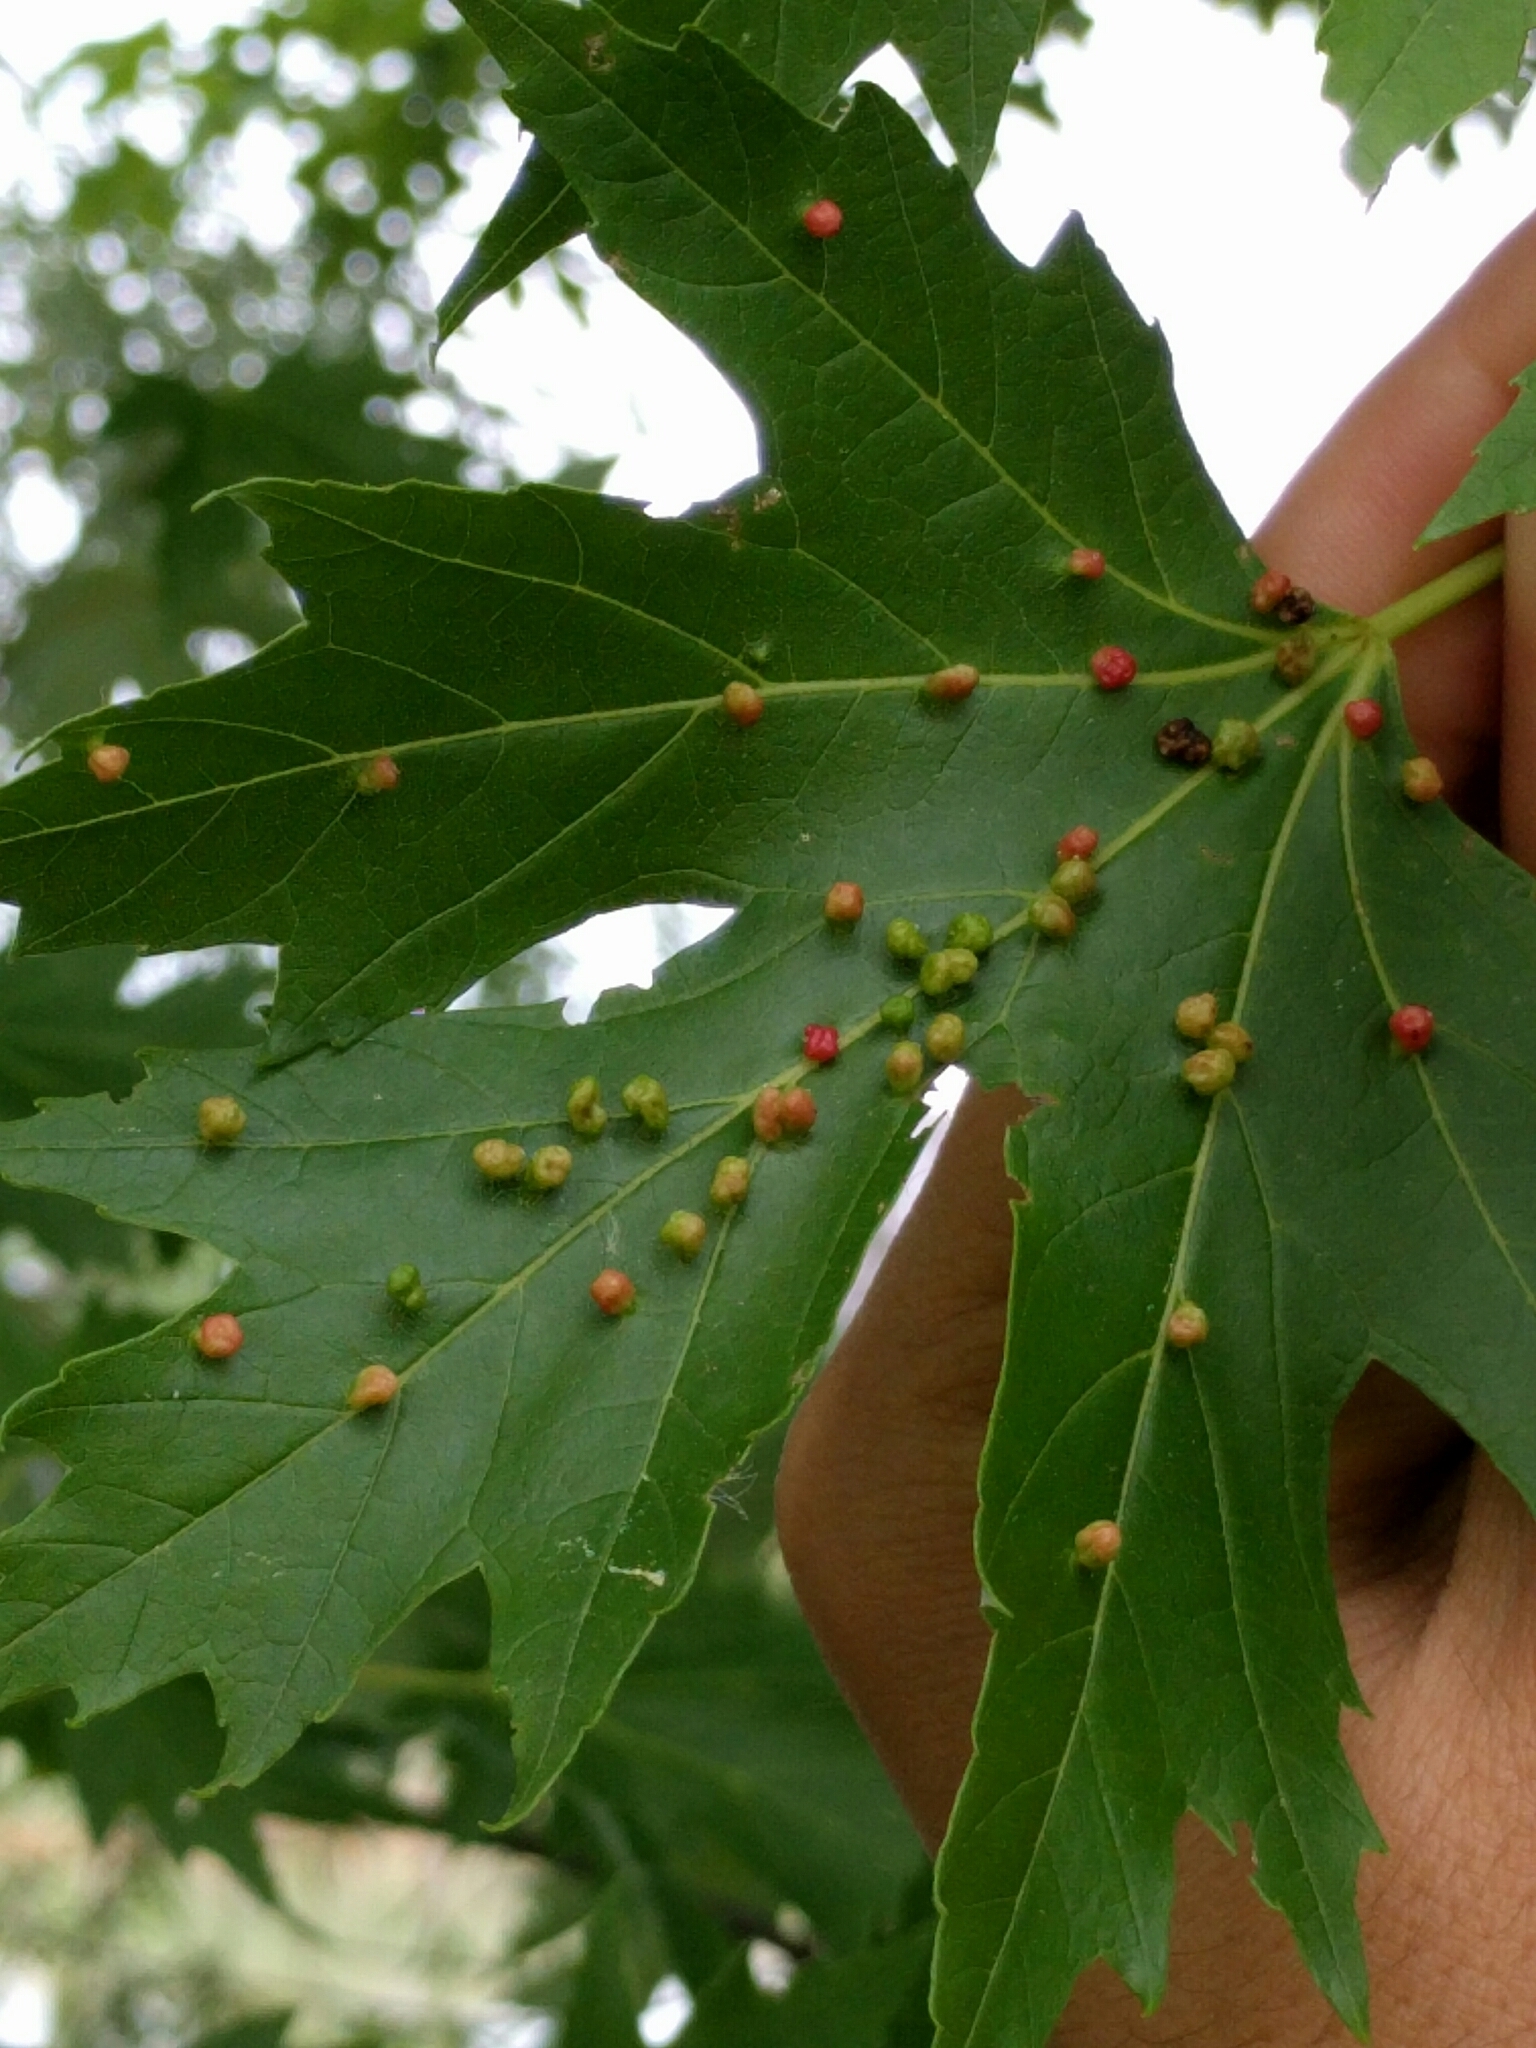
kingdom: Animalia
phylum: Arthropoda
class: Arachnida
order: Trombidiformes
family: Eriophyidae
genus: Vasates
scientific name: Vasates quadripedes
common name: Maple bladder gall mite
